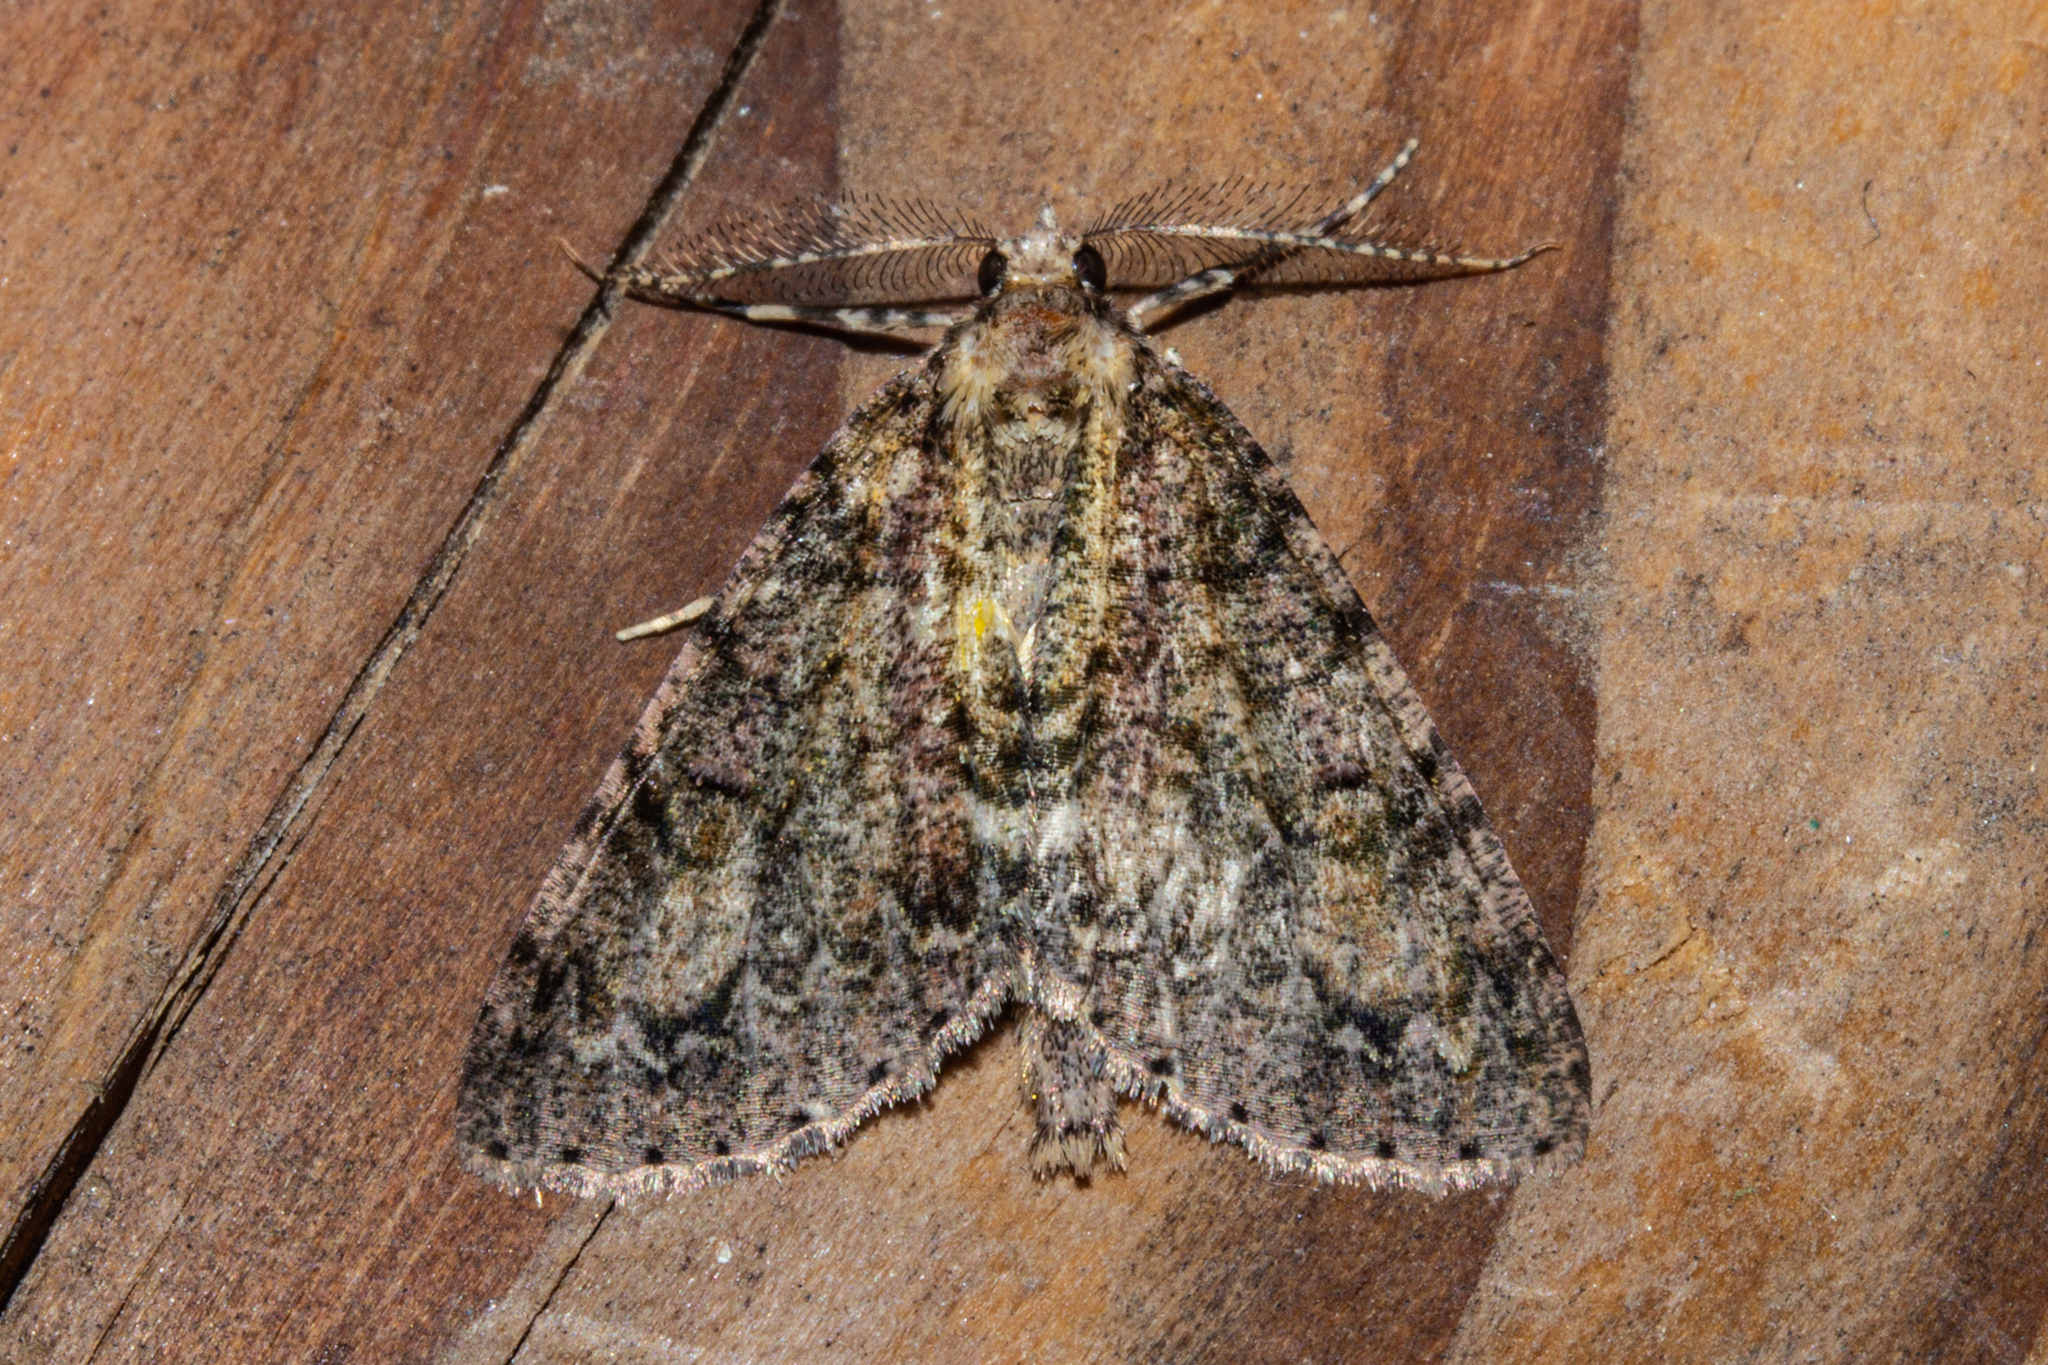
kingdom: Animalia
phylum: Arthropoda
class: Insecta
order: Lepidoptera
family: Geometridae
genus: Pseudocoremia
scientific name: Pseudocoremia suavis
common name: Common forest looper
